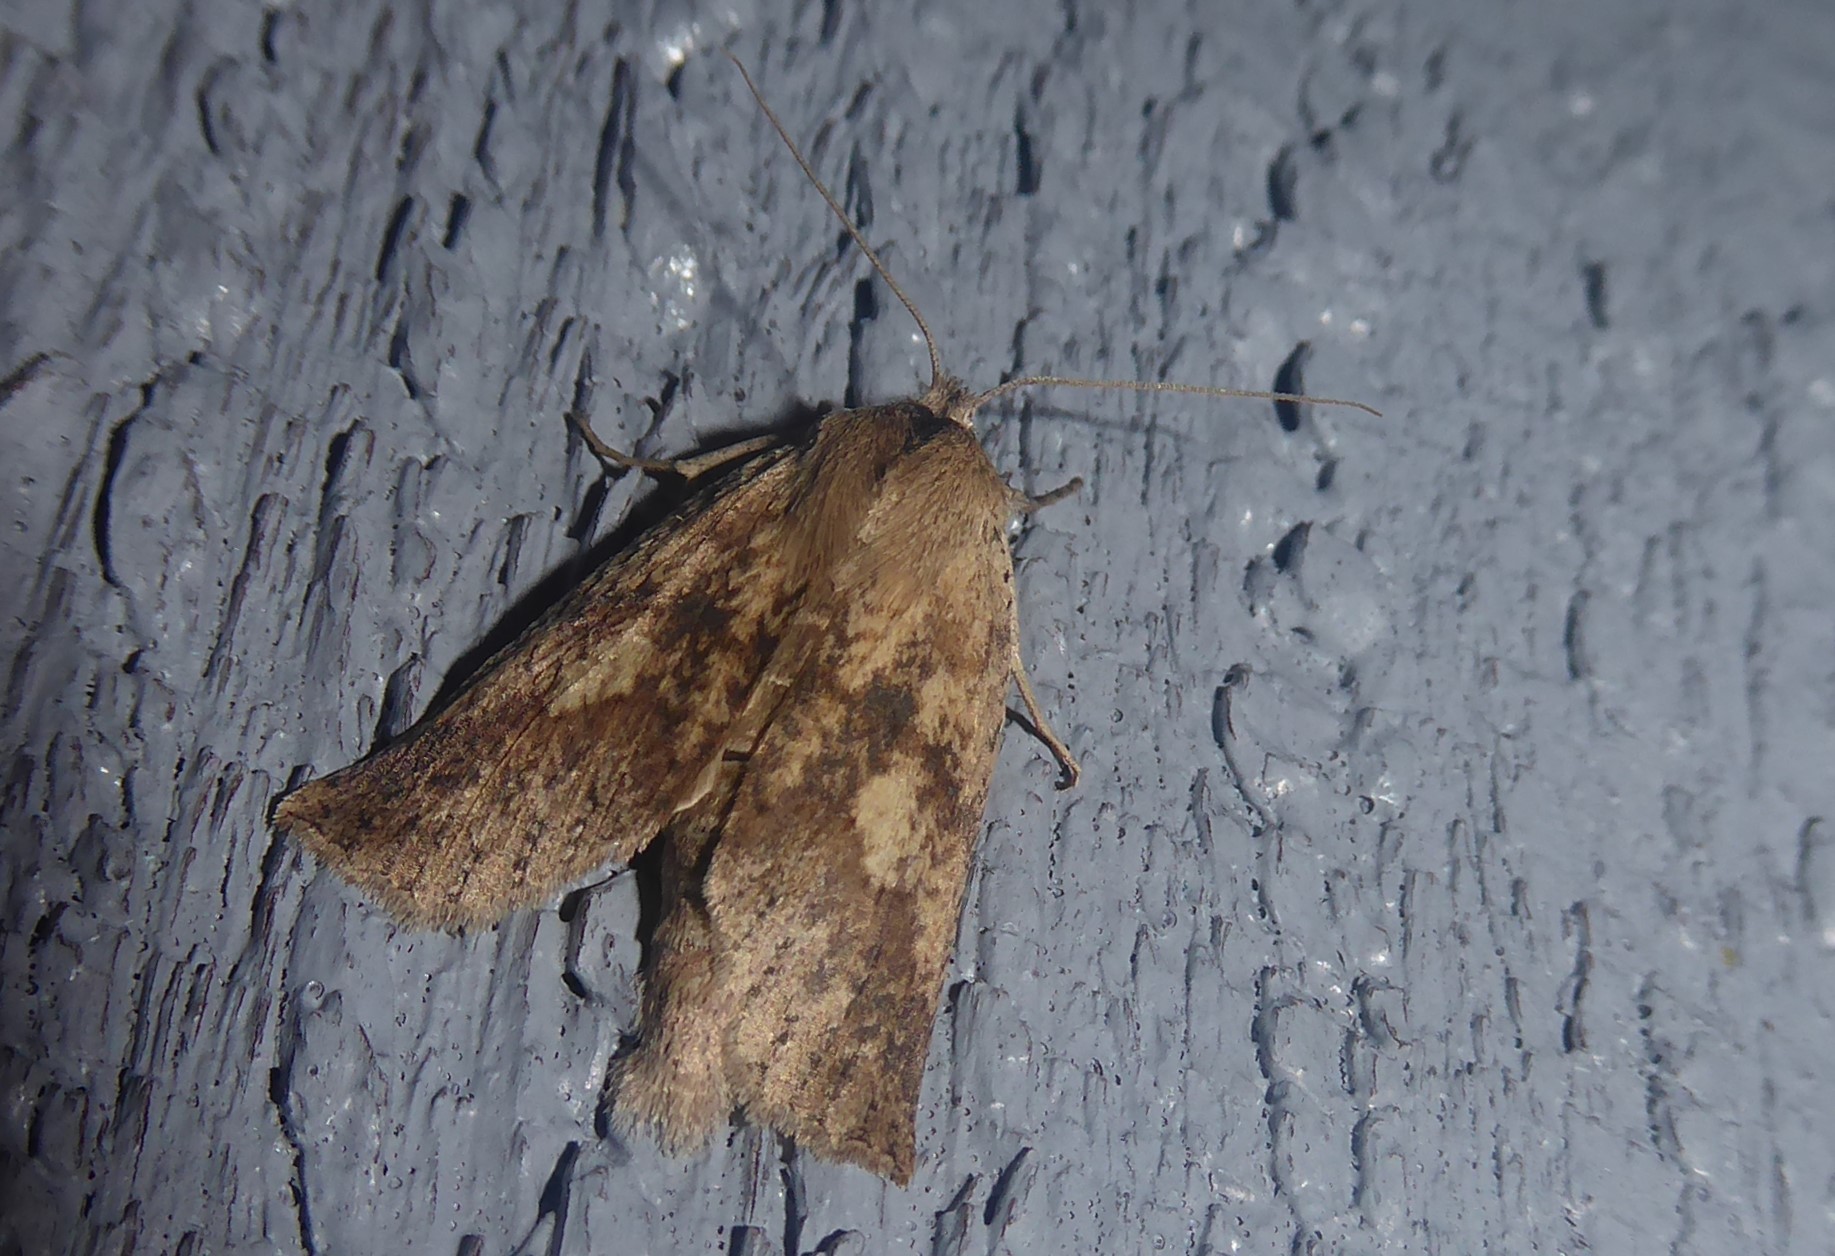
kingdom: Animalia
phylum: Arthropoda
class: Insecta
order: Lepidoptera
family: Geometridae
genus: Declana
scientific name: Declana leptomera
